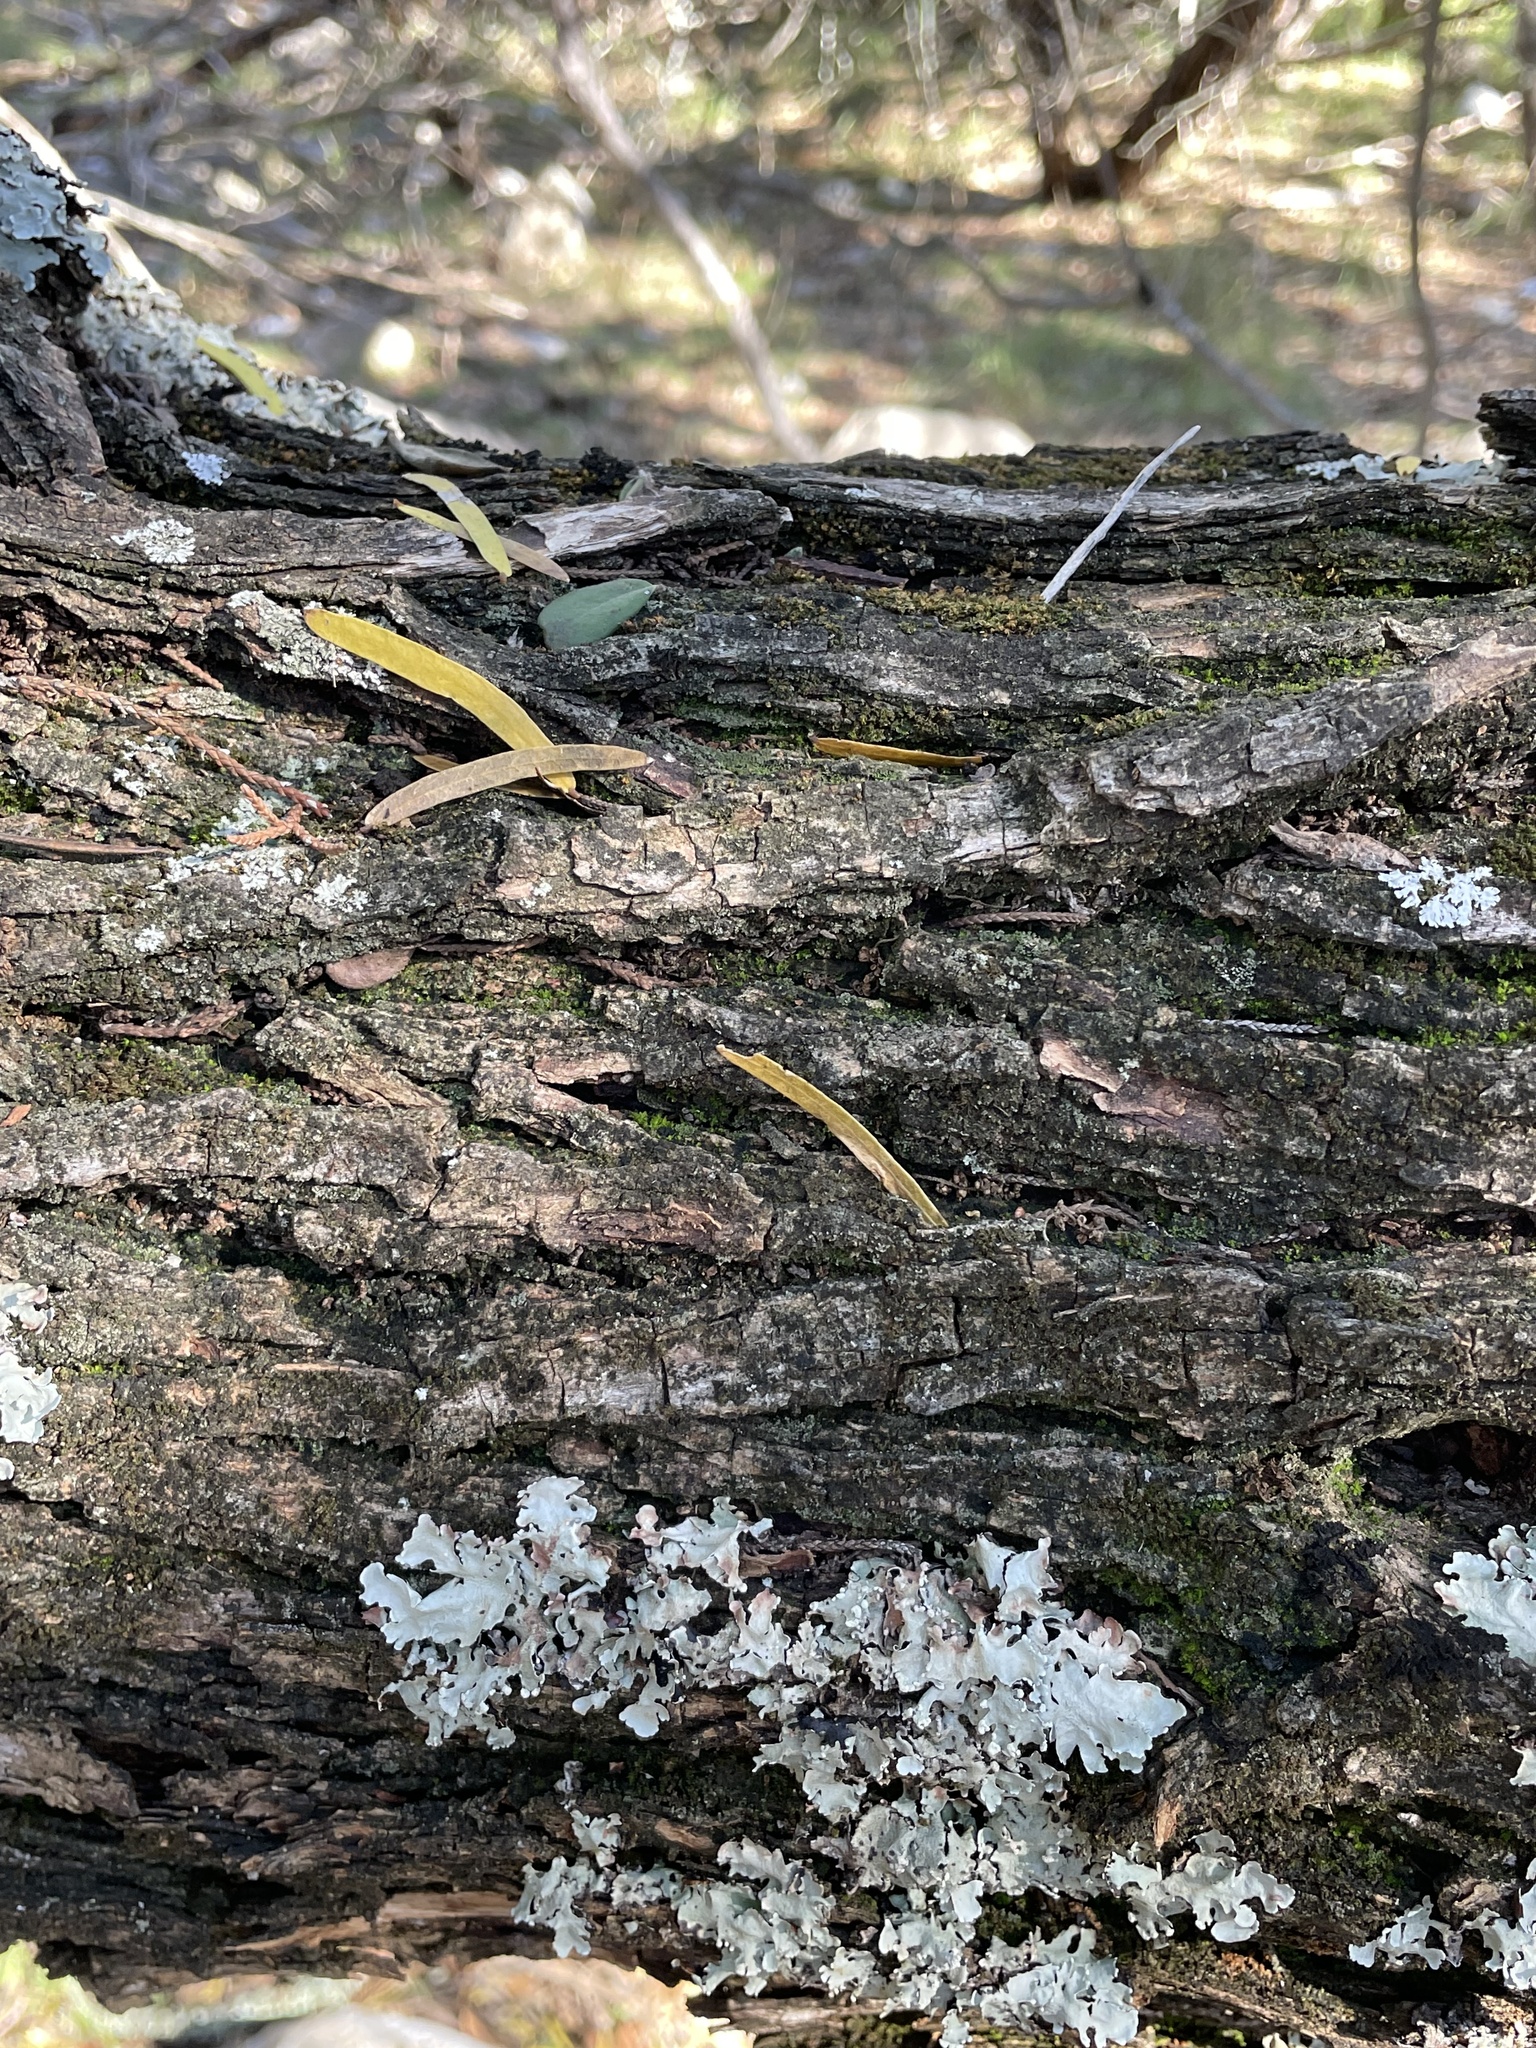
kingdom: Plantae
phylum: Tracheophyta
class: Magnoliopsida
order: Fabales
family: Fabaceae
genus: Prosopis
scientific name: Prosopis glandulosa
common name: Honey mesquite
